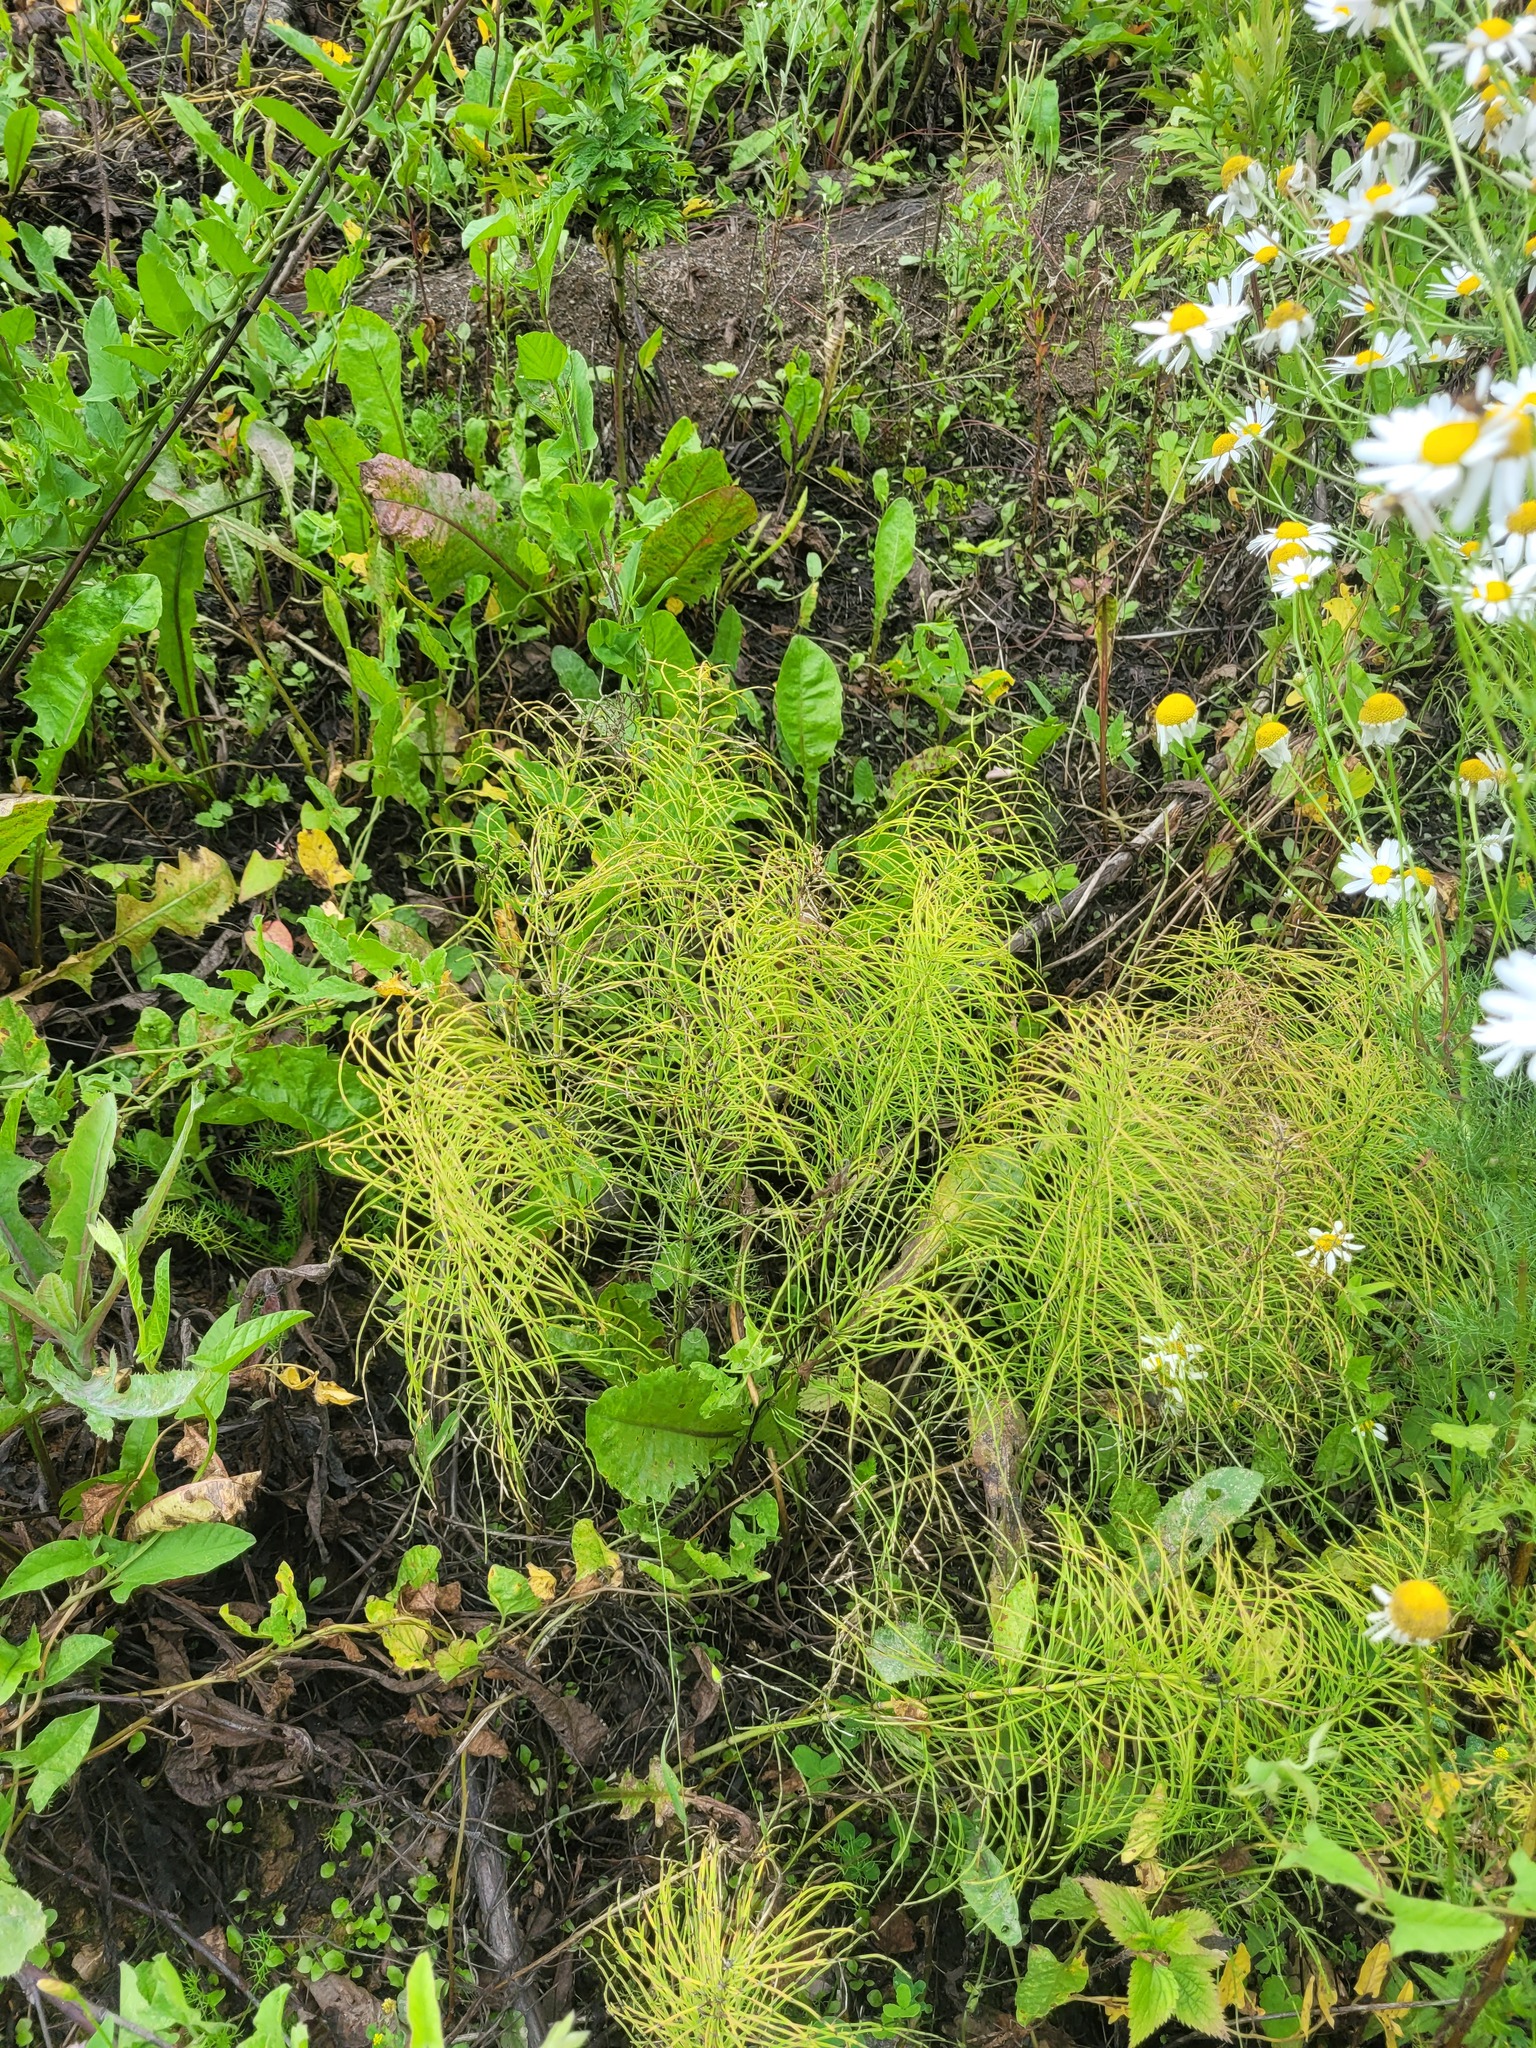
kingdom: Plantae
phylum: Tracheophyta
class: Polypodiopsida
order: Equisetales
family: Equisetaceae
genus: Equisetum
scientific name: Equisetum pratense
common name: Meadow horsetail
